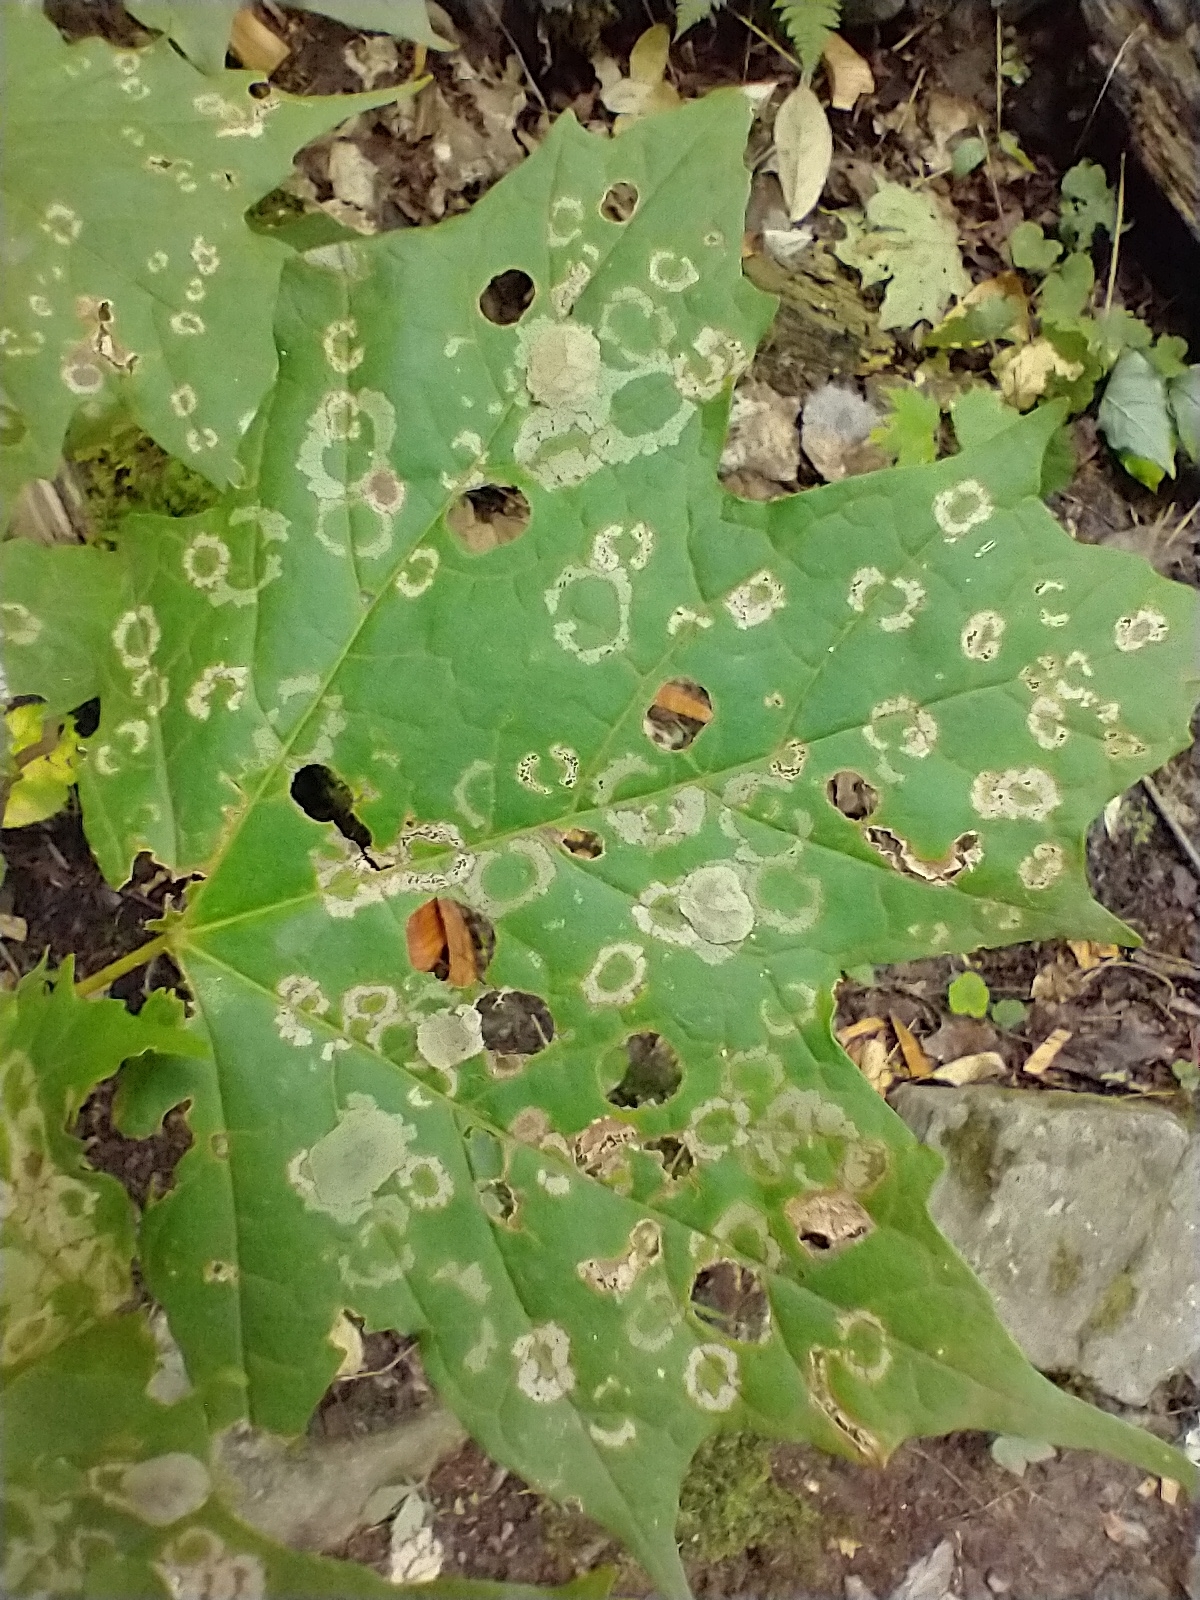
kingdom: Animalia
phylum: Arthropoda
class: Insecta
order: Lepidoptera
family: Incurvariidae
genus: Paraclemensia
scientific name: Paraclemensia acerifoliella
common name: Maple leafcutter
